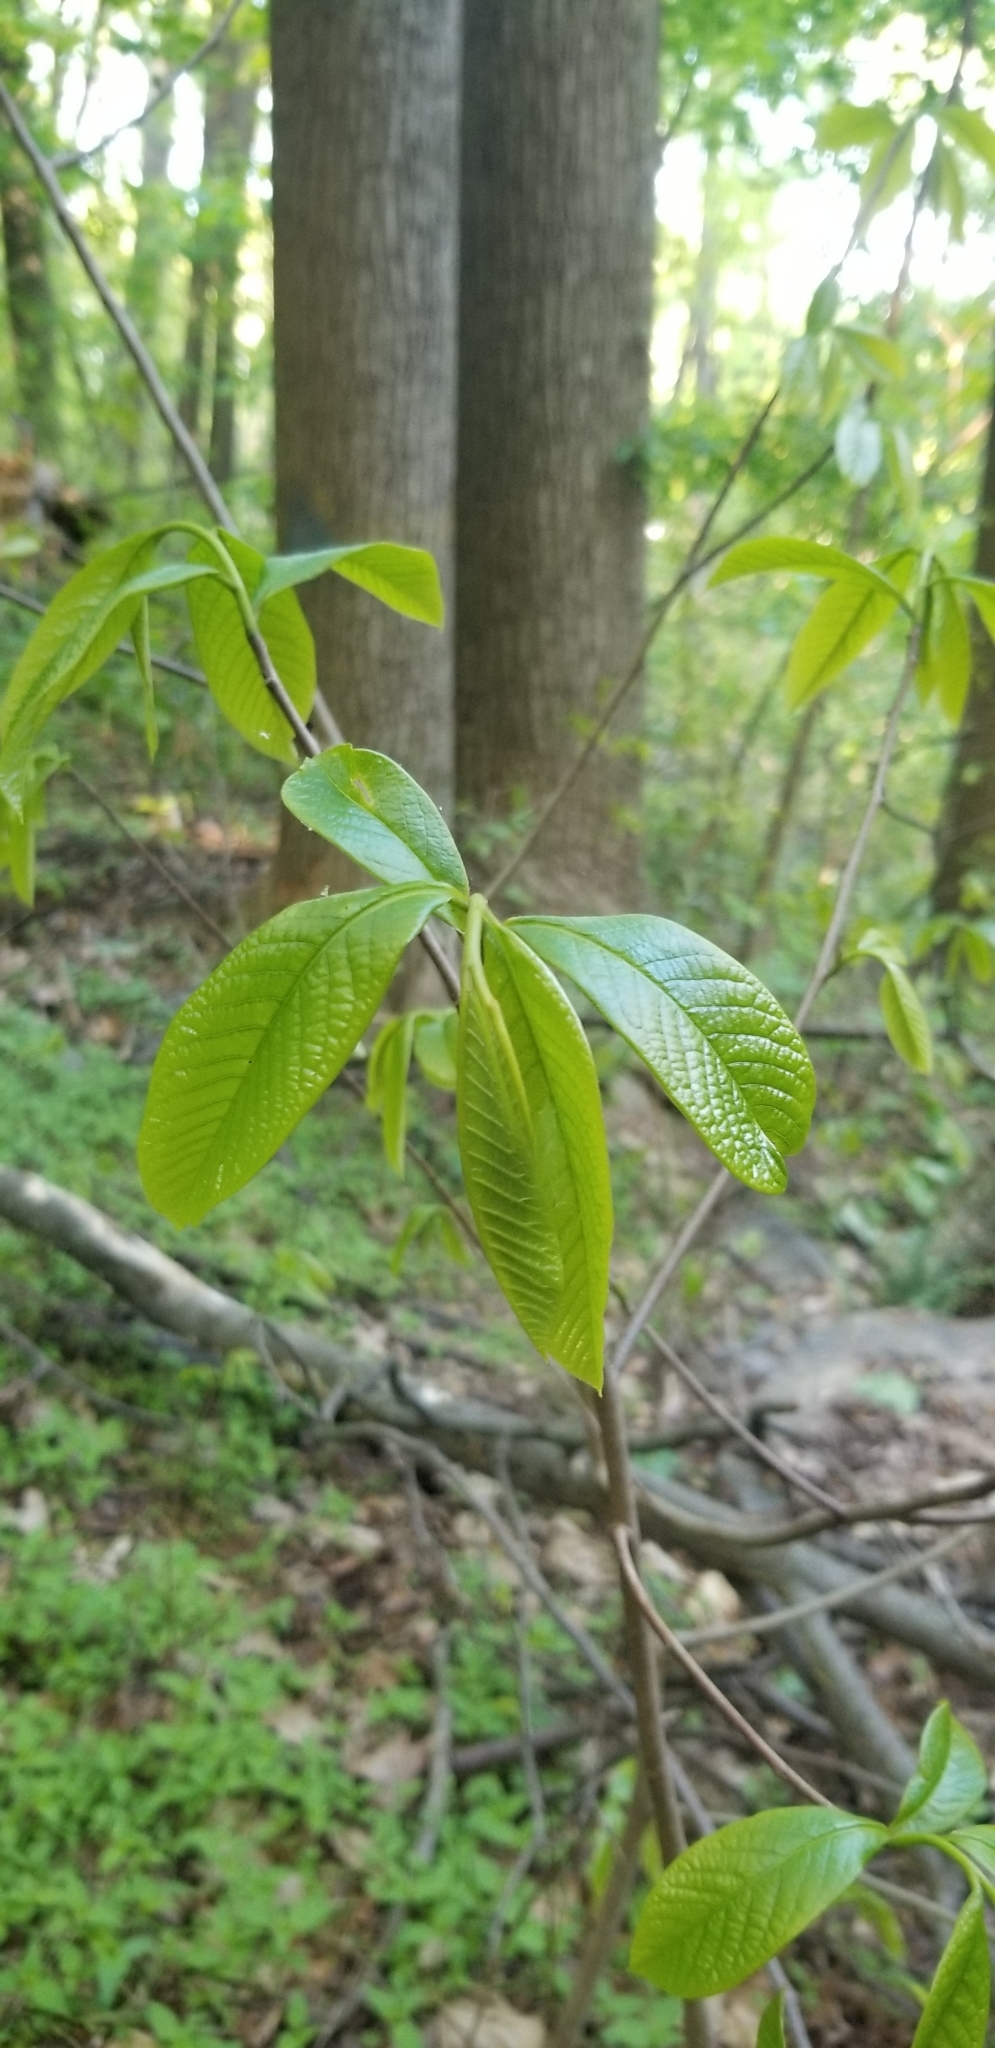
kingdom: Plantae
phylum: Tracheophyta
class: Magnoliopsida
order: Magnoliales
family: Annonaceae
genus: Asimina
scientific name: Asimina triloba
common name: Dog-banana
